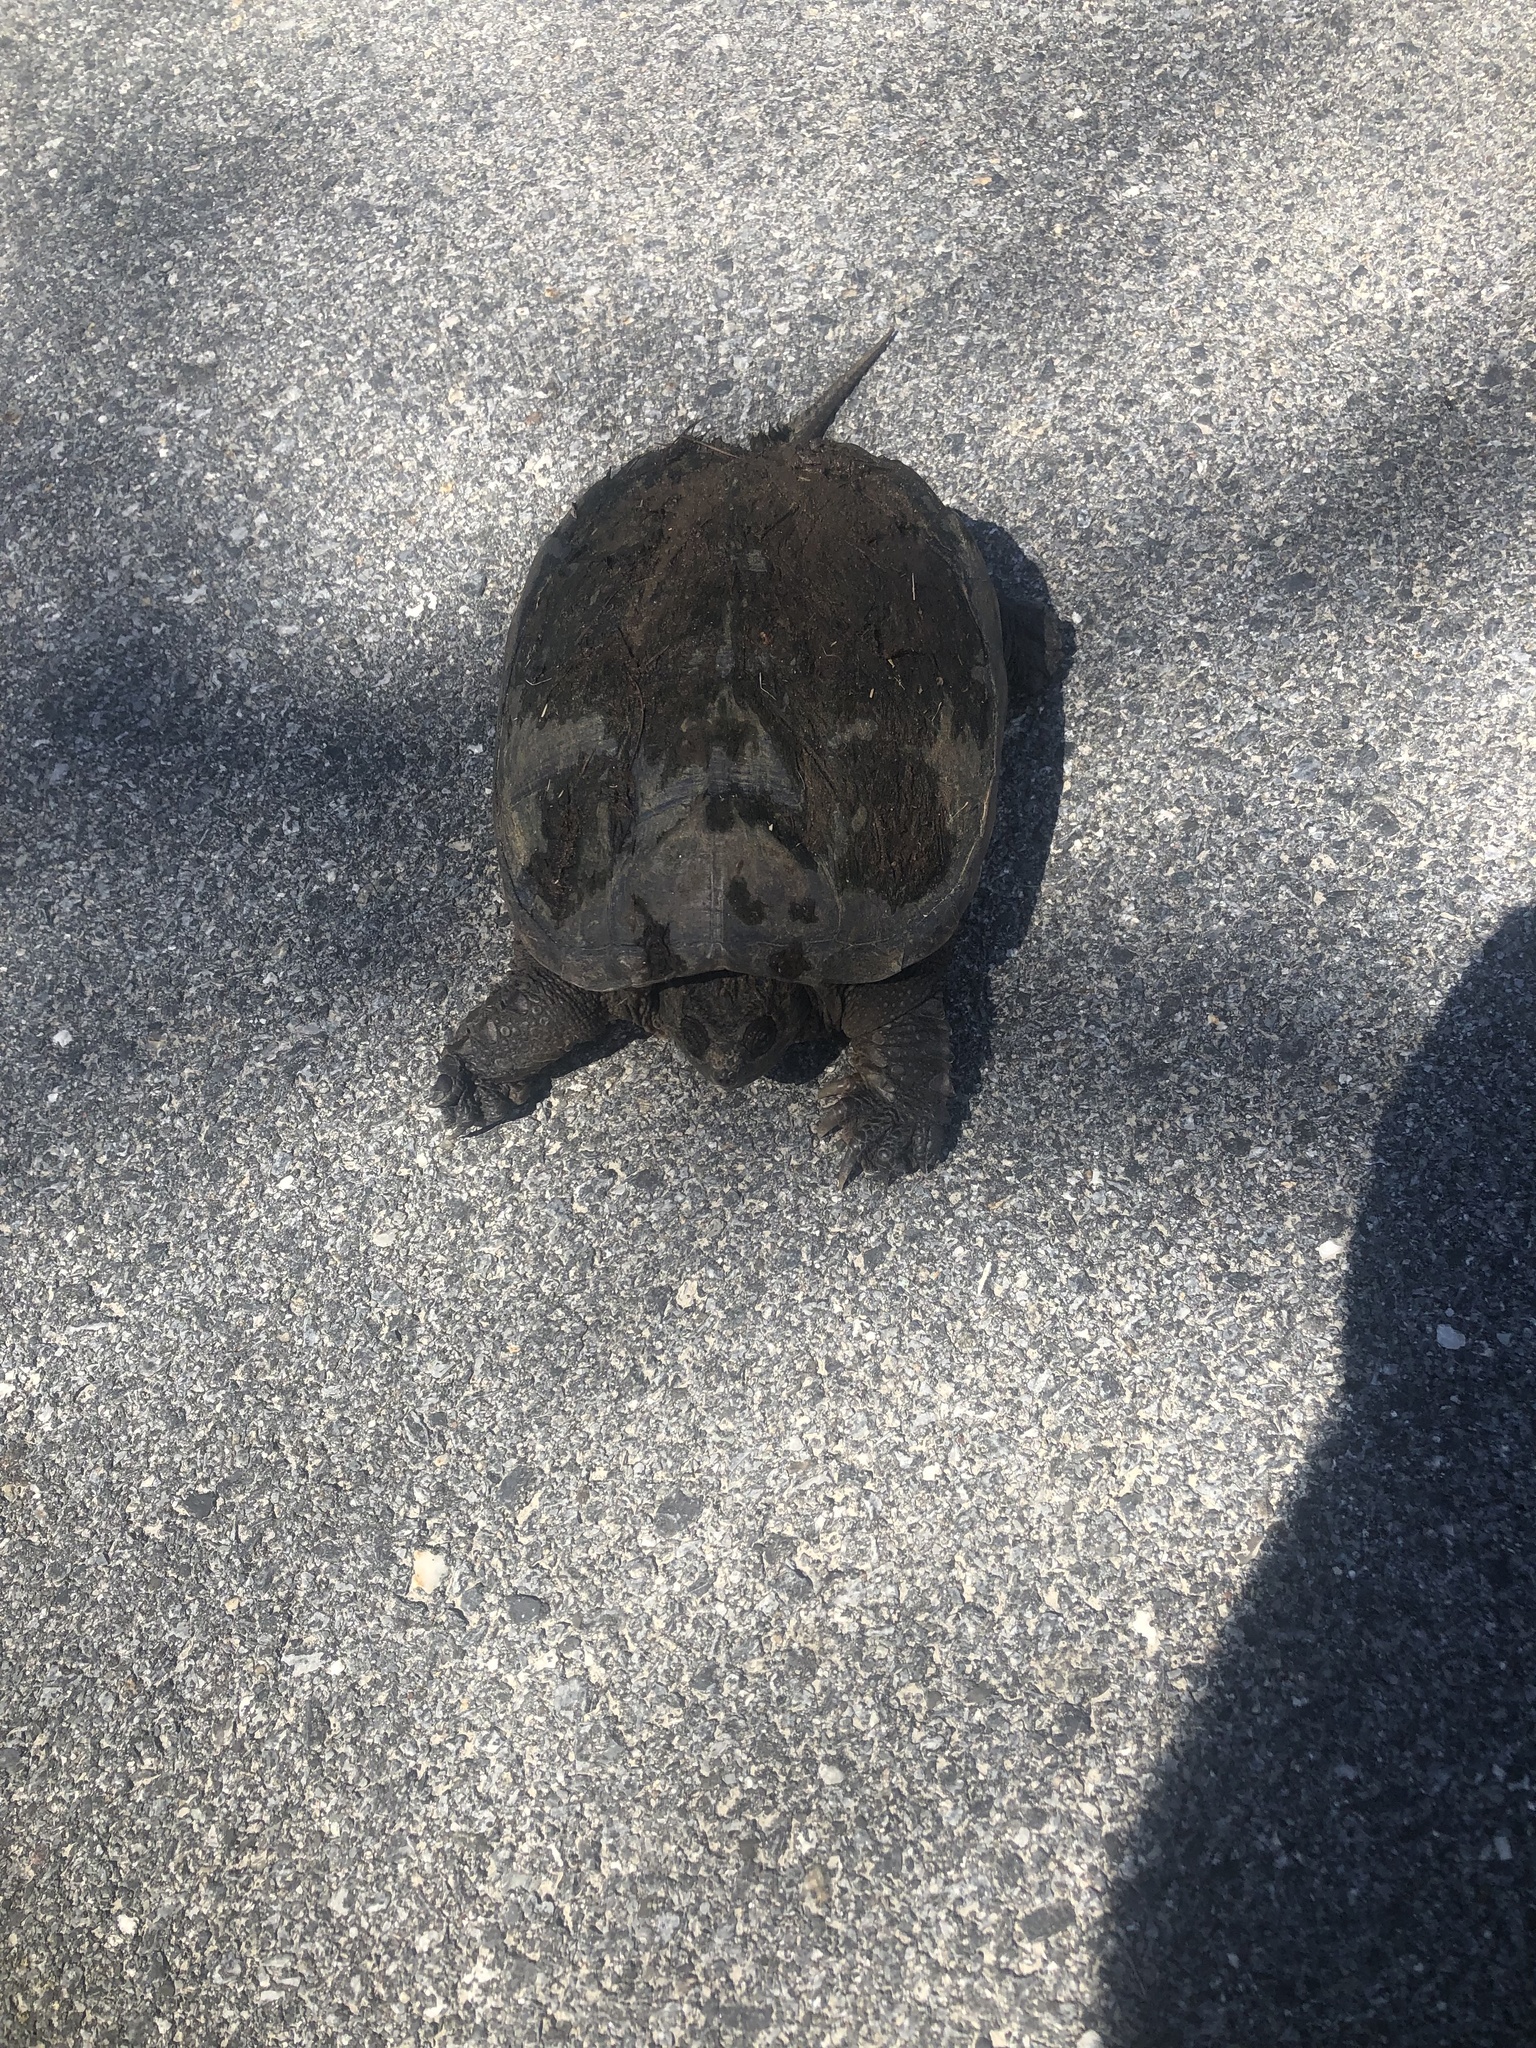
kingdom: Animalia
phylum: Chordata
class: Testudines
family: Chelydridae
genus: Chelydra
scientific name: Chelydra serpentina
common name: Common snapping turtle
